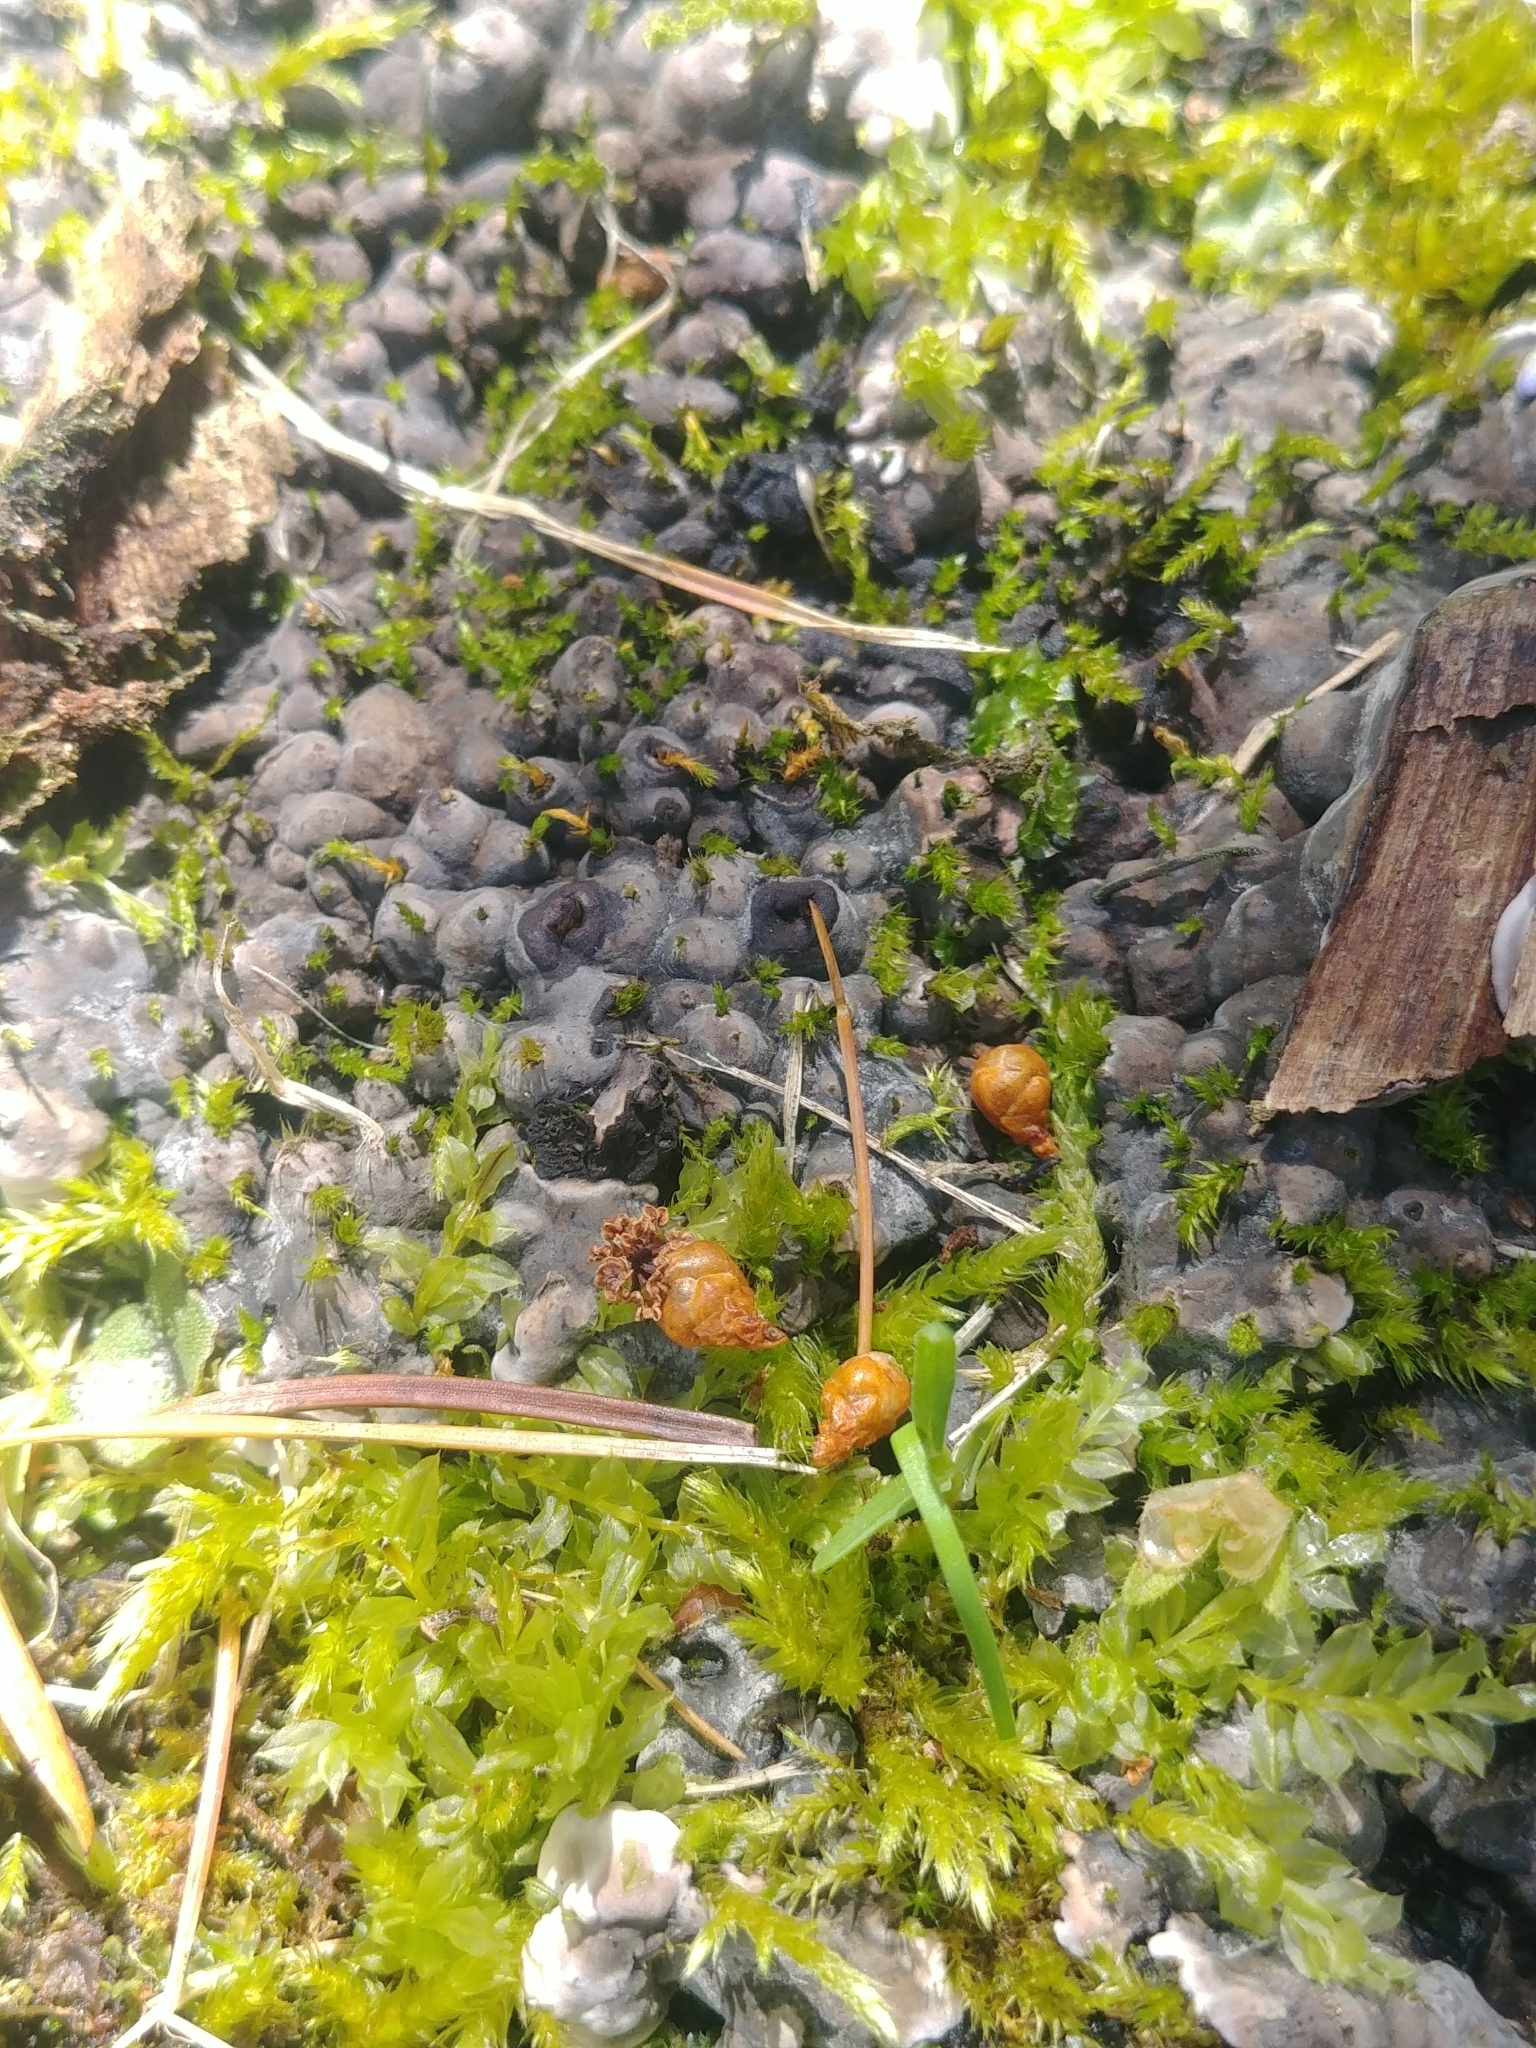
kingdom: Fungi
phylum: Ascomycota
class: Sordariomycetes
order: Xylariales
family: Xylariaceae
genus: Kretzschmaria
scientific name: Kretzschmaria deusta
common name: Brittle cinder
